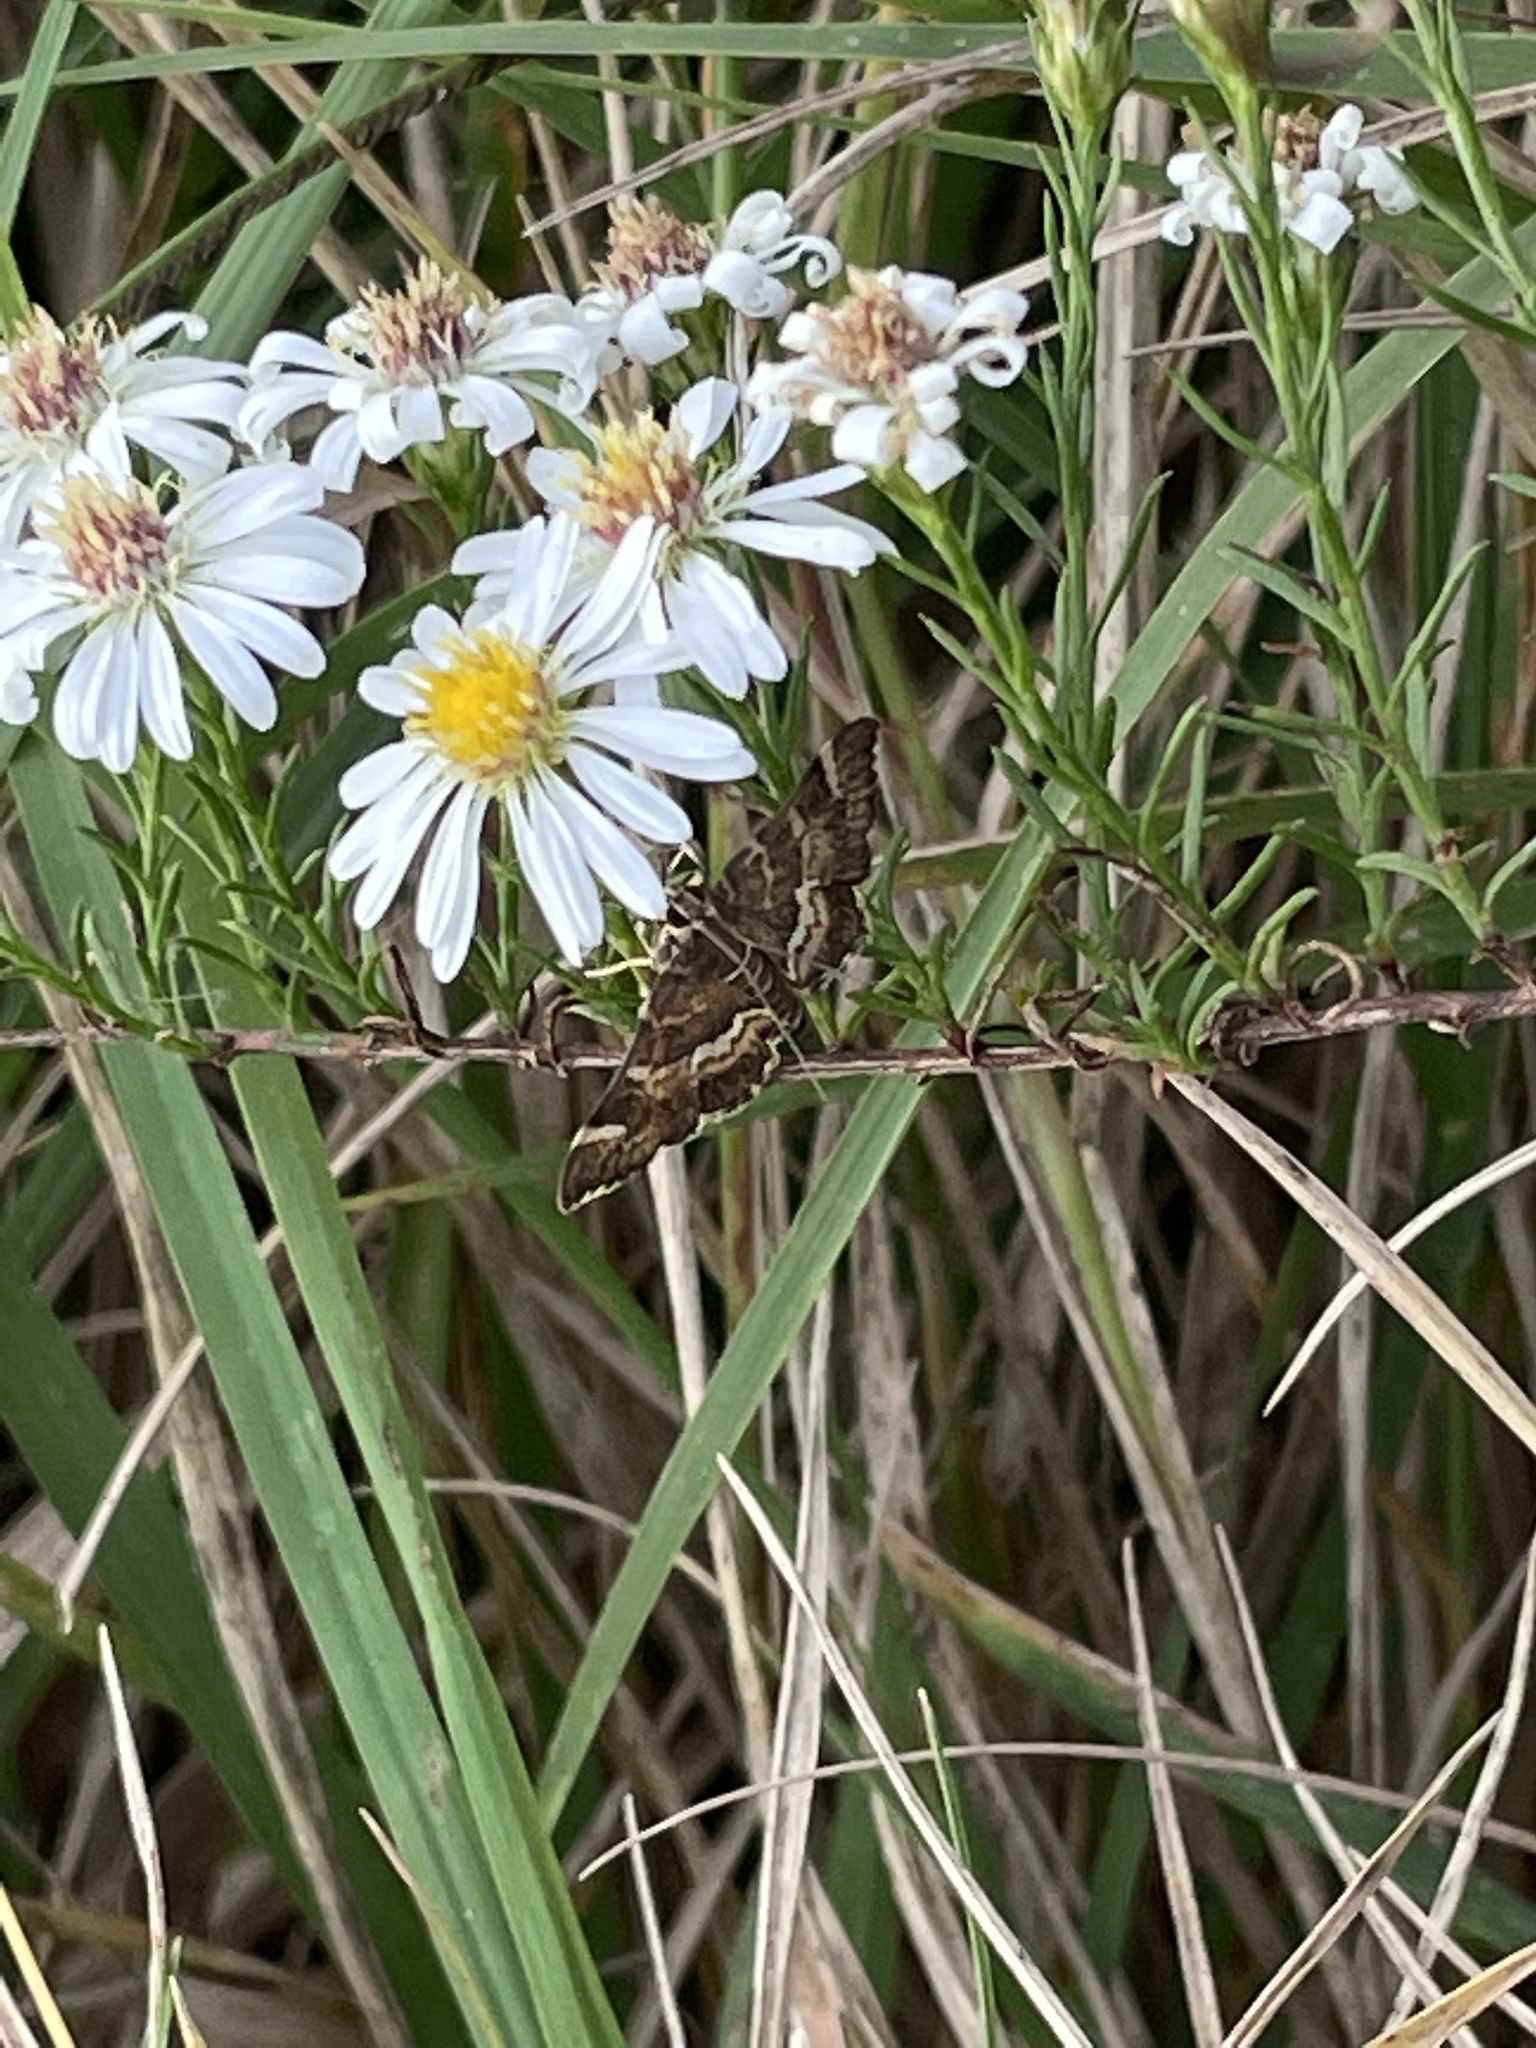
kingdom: Animalia
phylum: Arthropoda
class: Insecta
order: Lepidoptera
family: Crambidae
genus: Hymenia
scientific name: Hymenia perspectalis
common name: Spotted beet webworm
